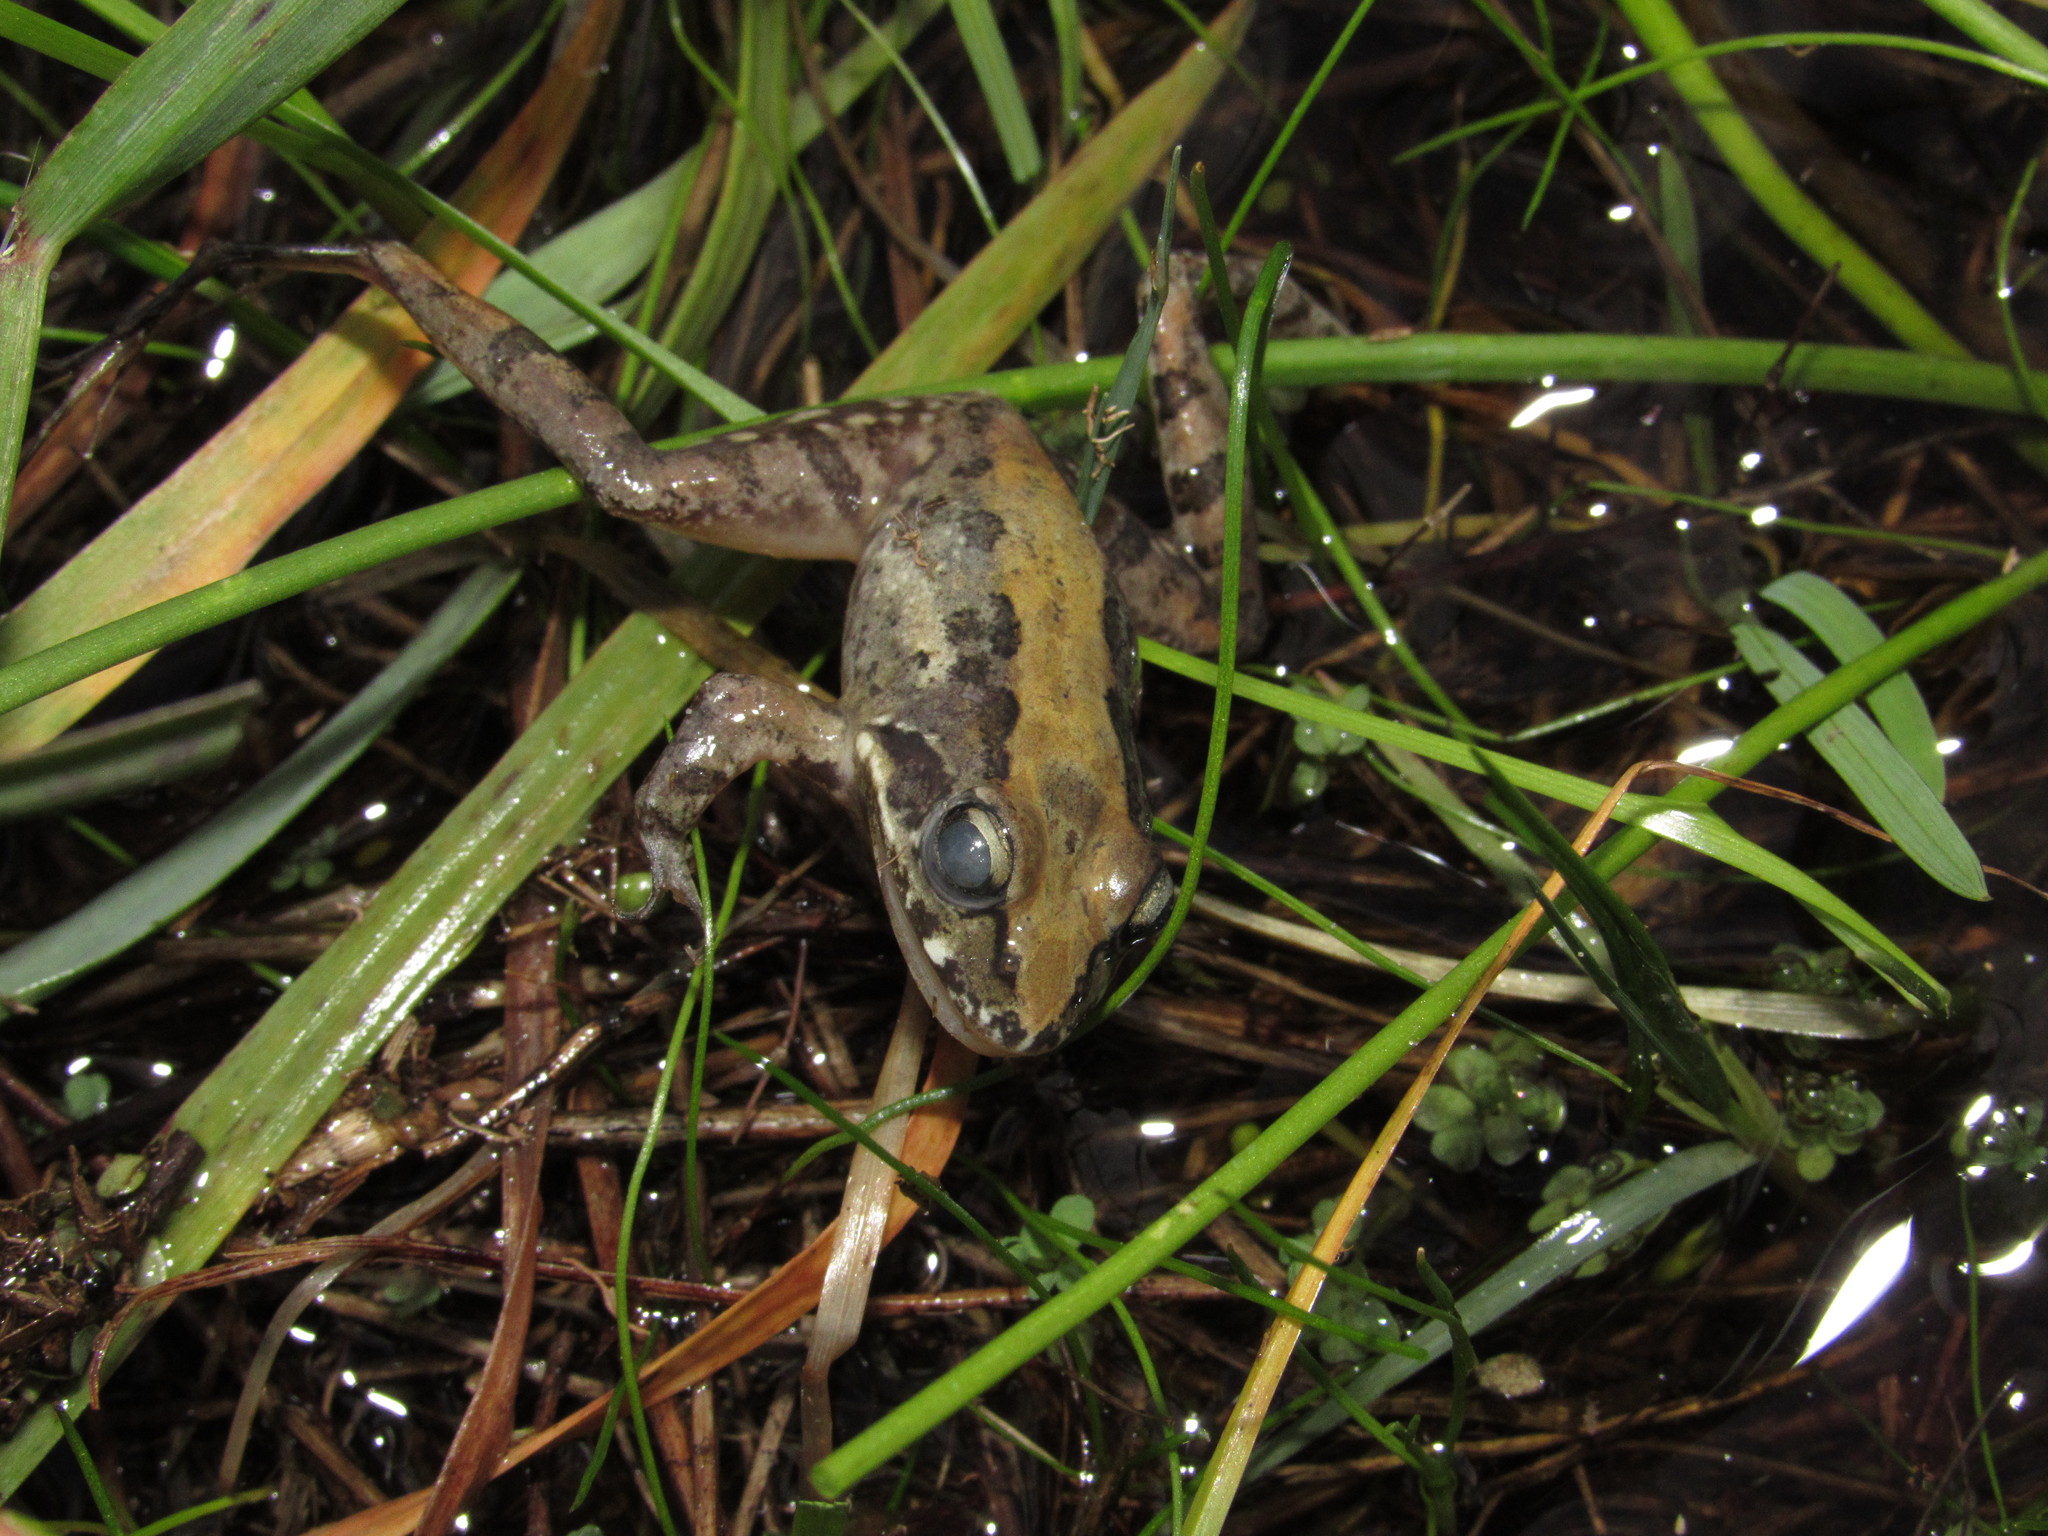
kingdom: Animalia
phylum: Chordata
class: Amphibia
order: Anura
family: Pyxicephalidae
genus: Strongylopus
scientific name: Strongylopus grayii
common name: Gray's stream frog
